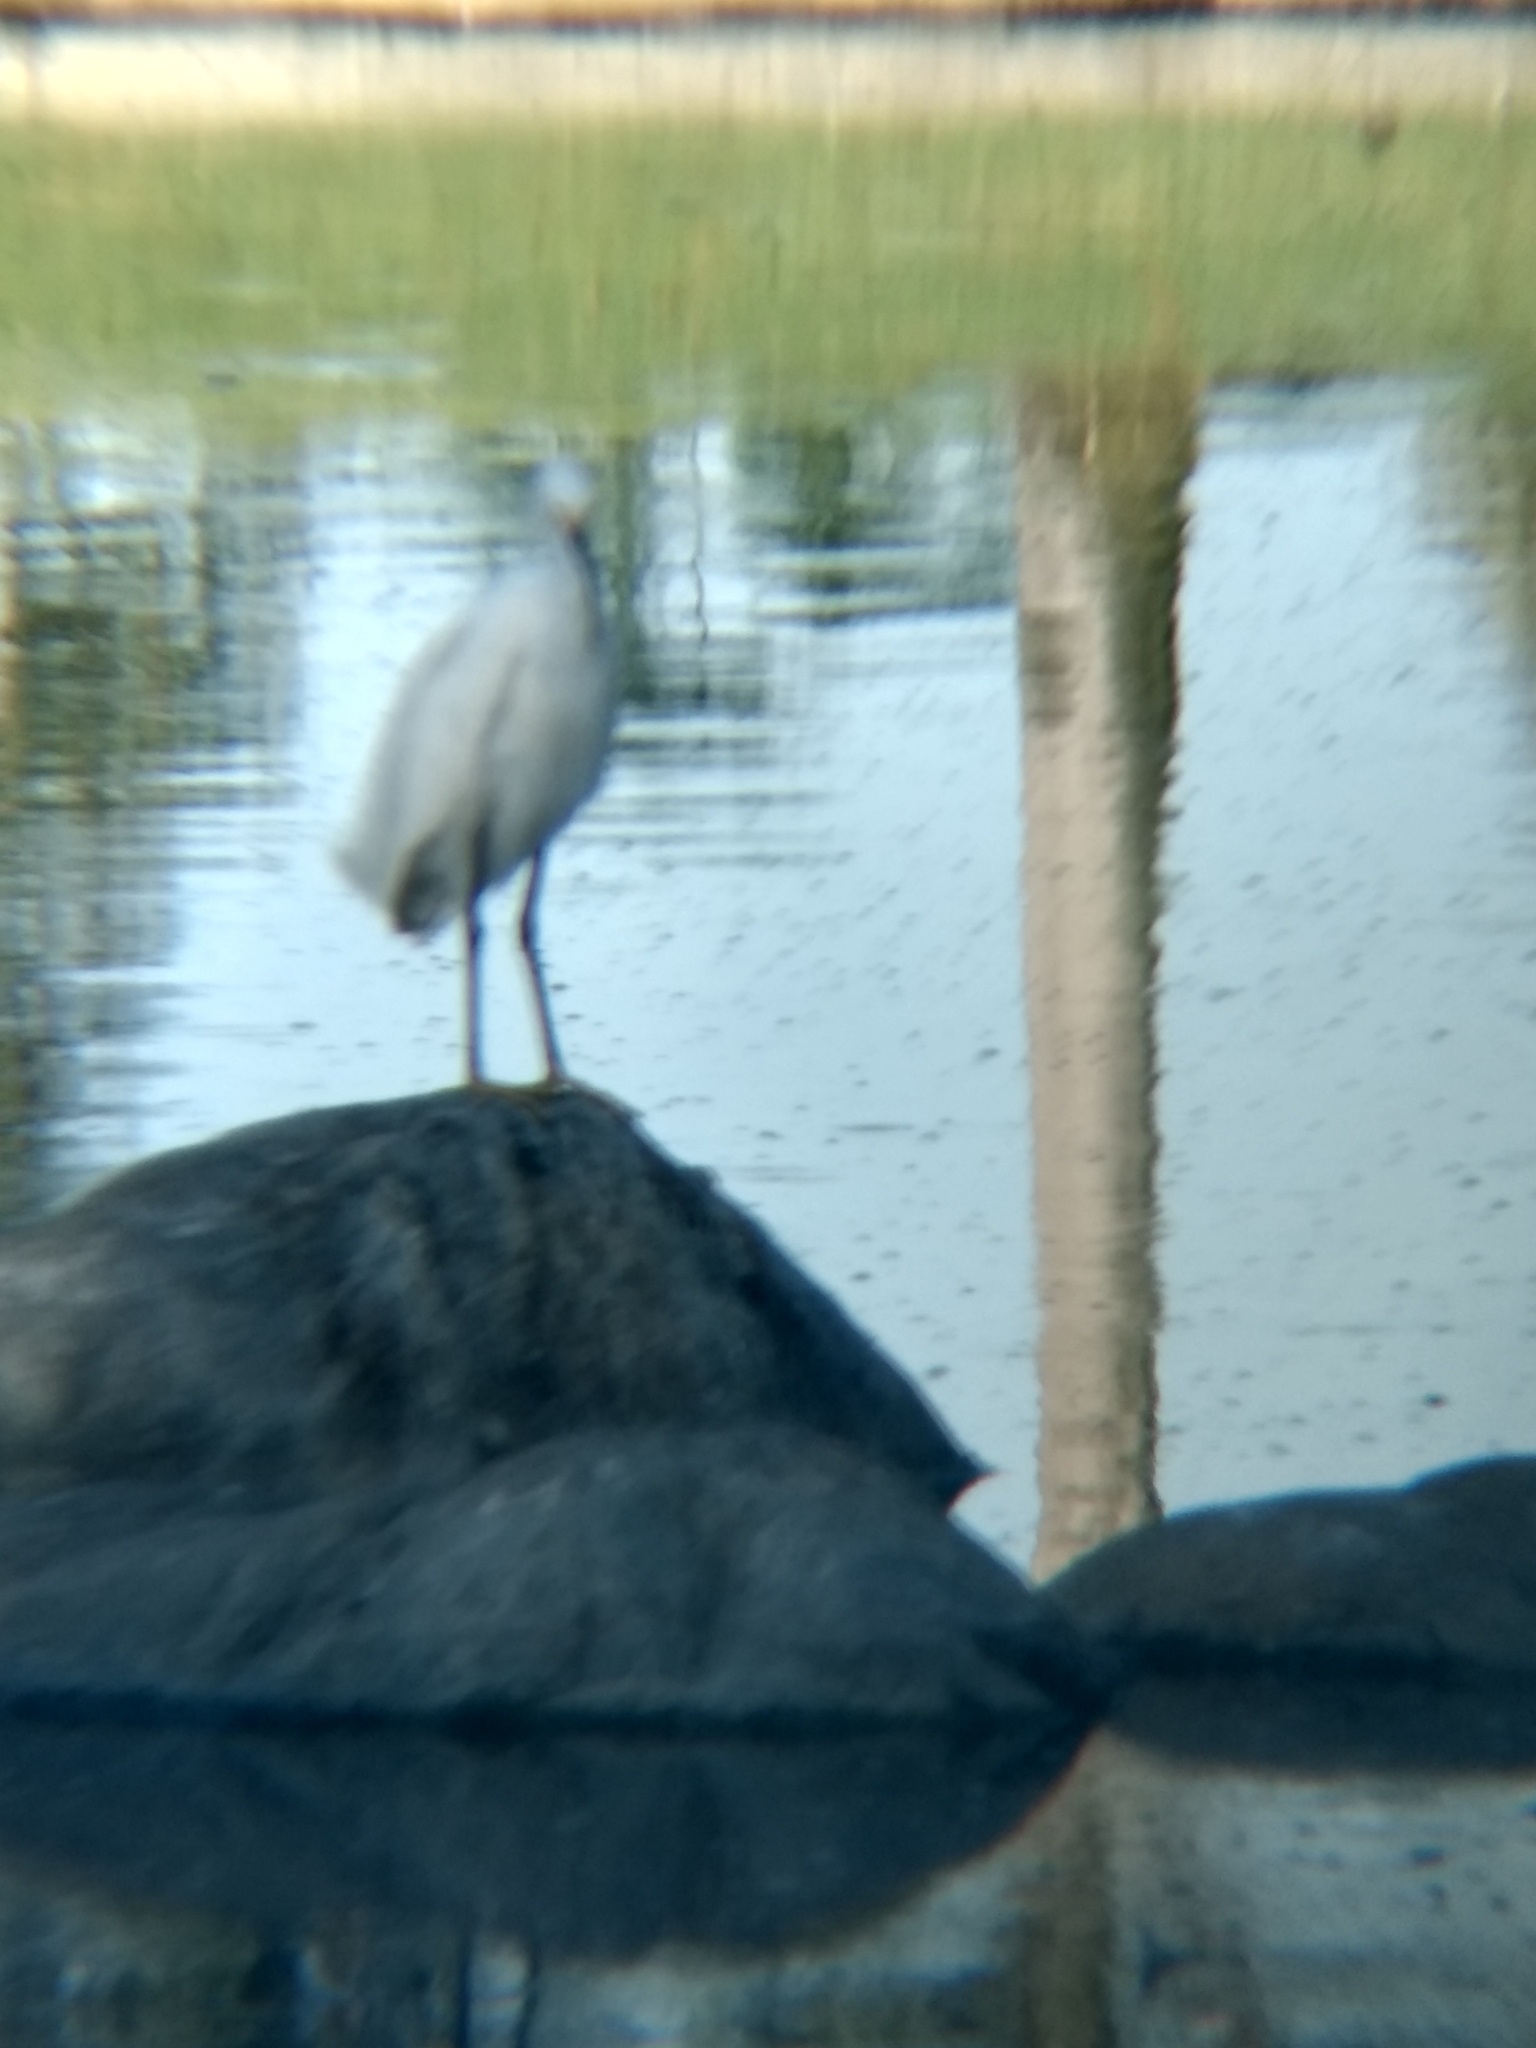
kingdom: Animalia
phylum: Chordata
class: Aves
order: Pelecaniformes
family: Ardeidae
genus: Egretta
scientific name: Egretta thula
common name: Snowy egret
